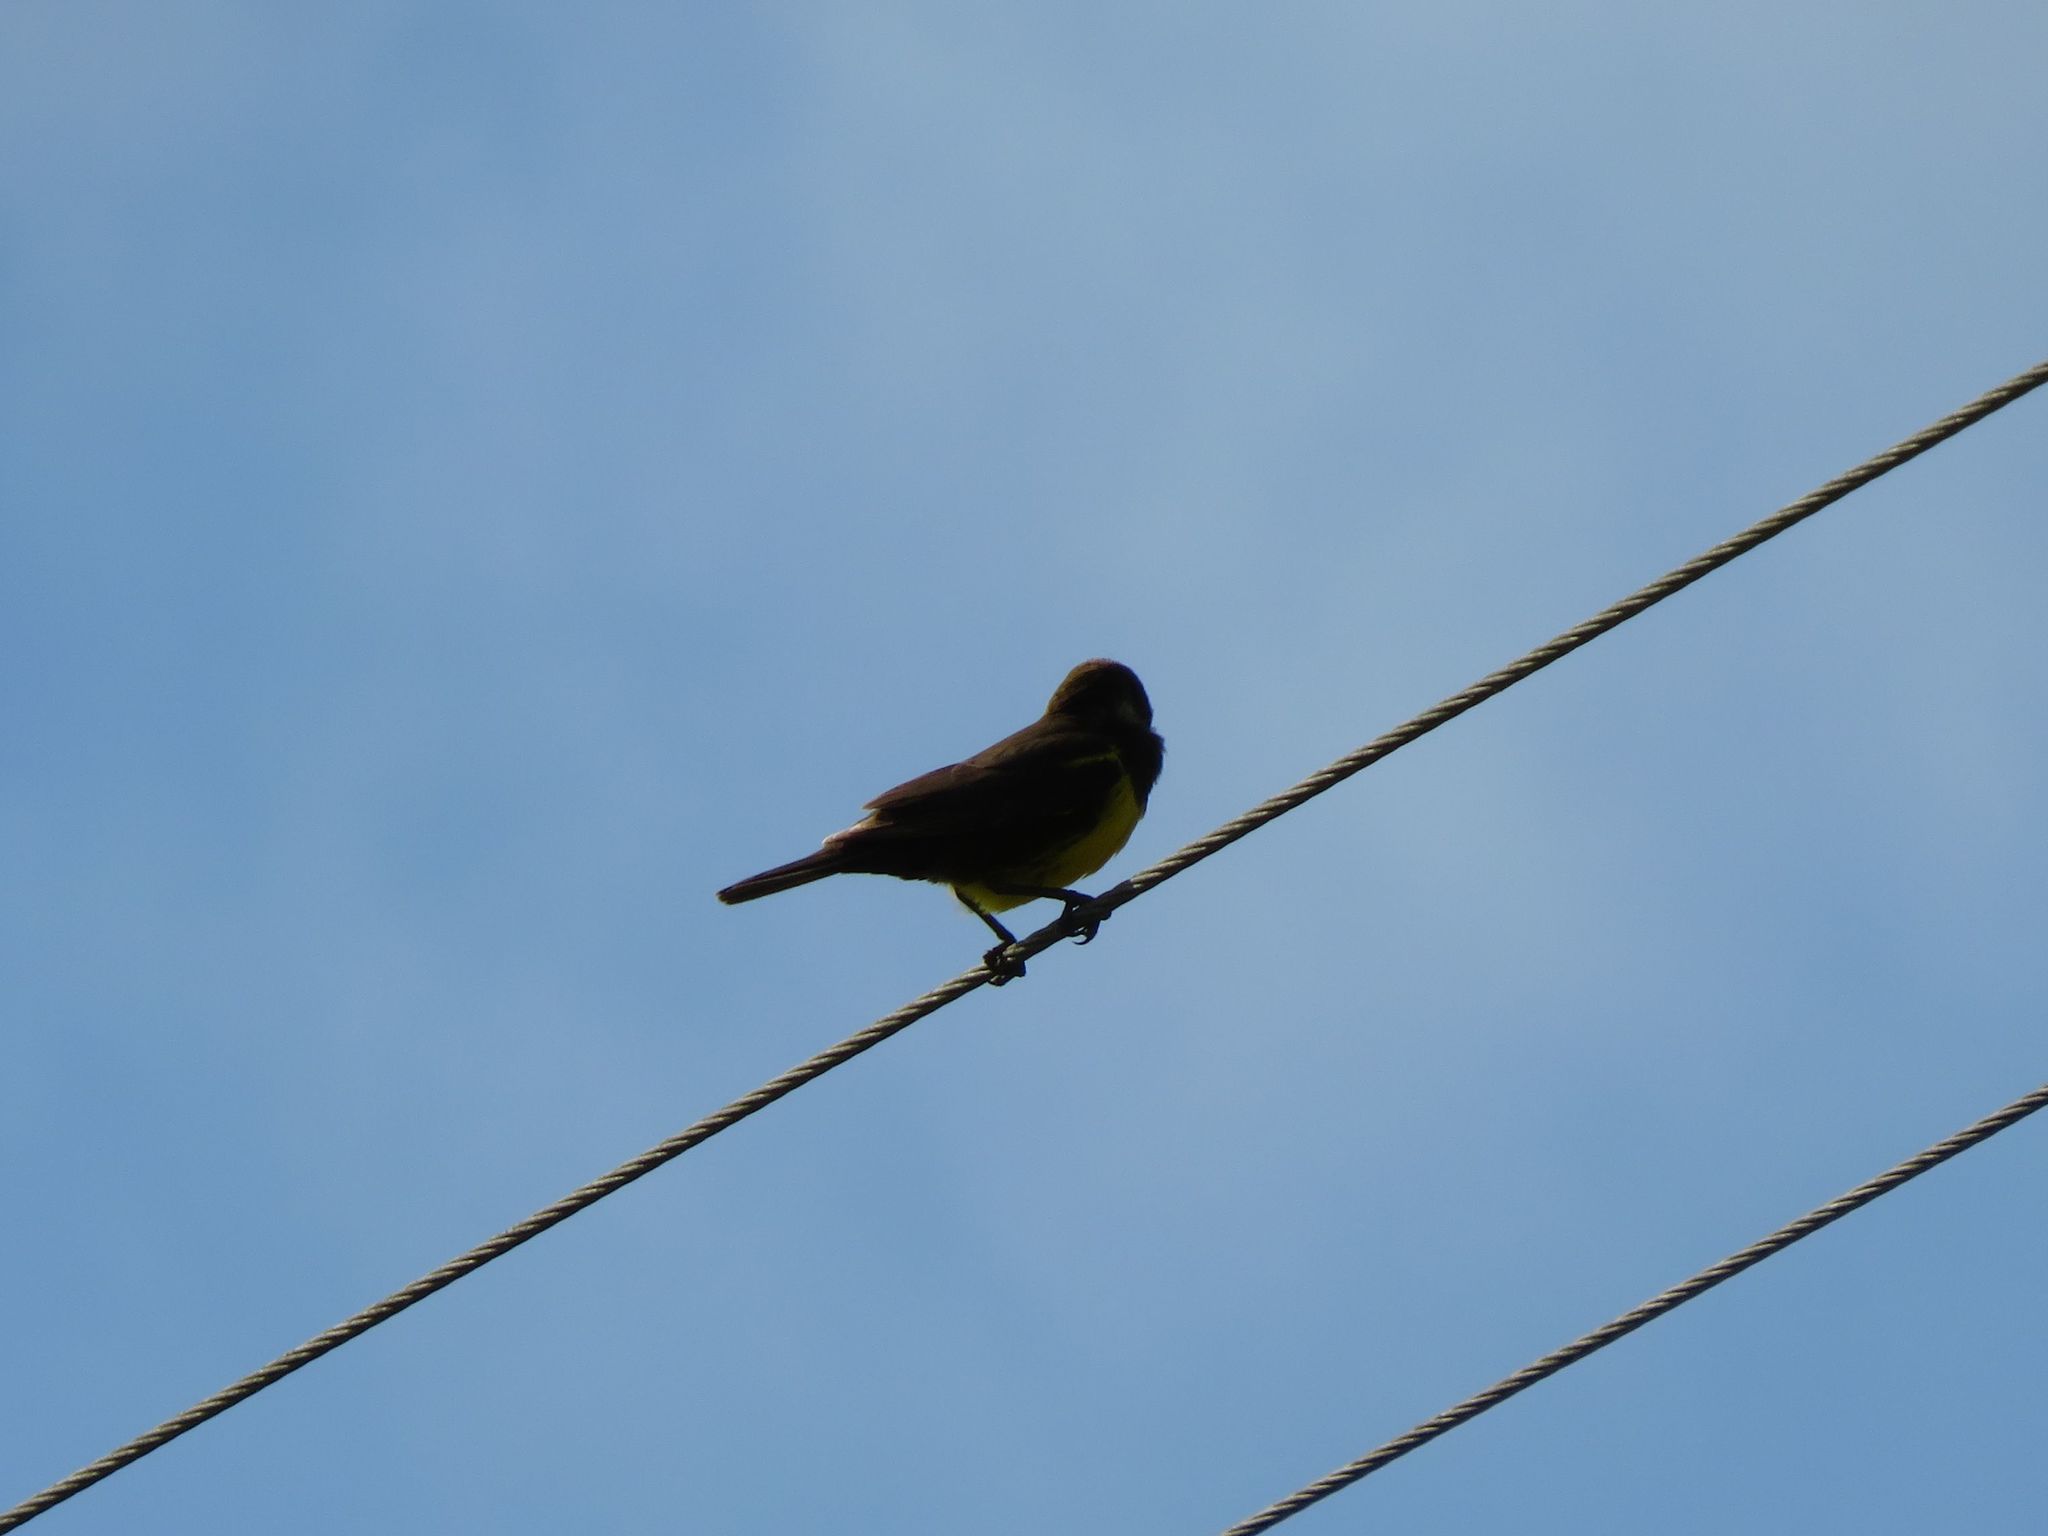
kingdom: Animalia
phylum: Chordata
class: Aves
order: Passeriformes
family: Icteridae
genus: Pseudoleistes
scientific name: Pseudoleistes virescens
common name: Brown-and-yellow marshbird
